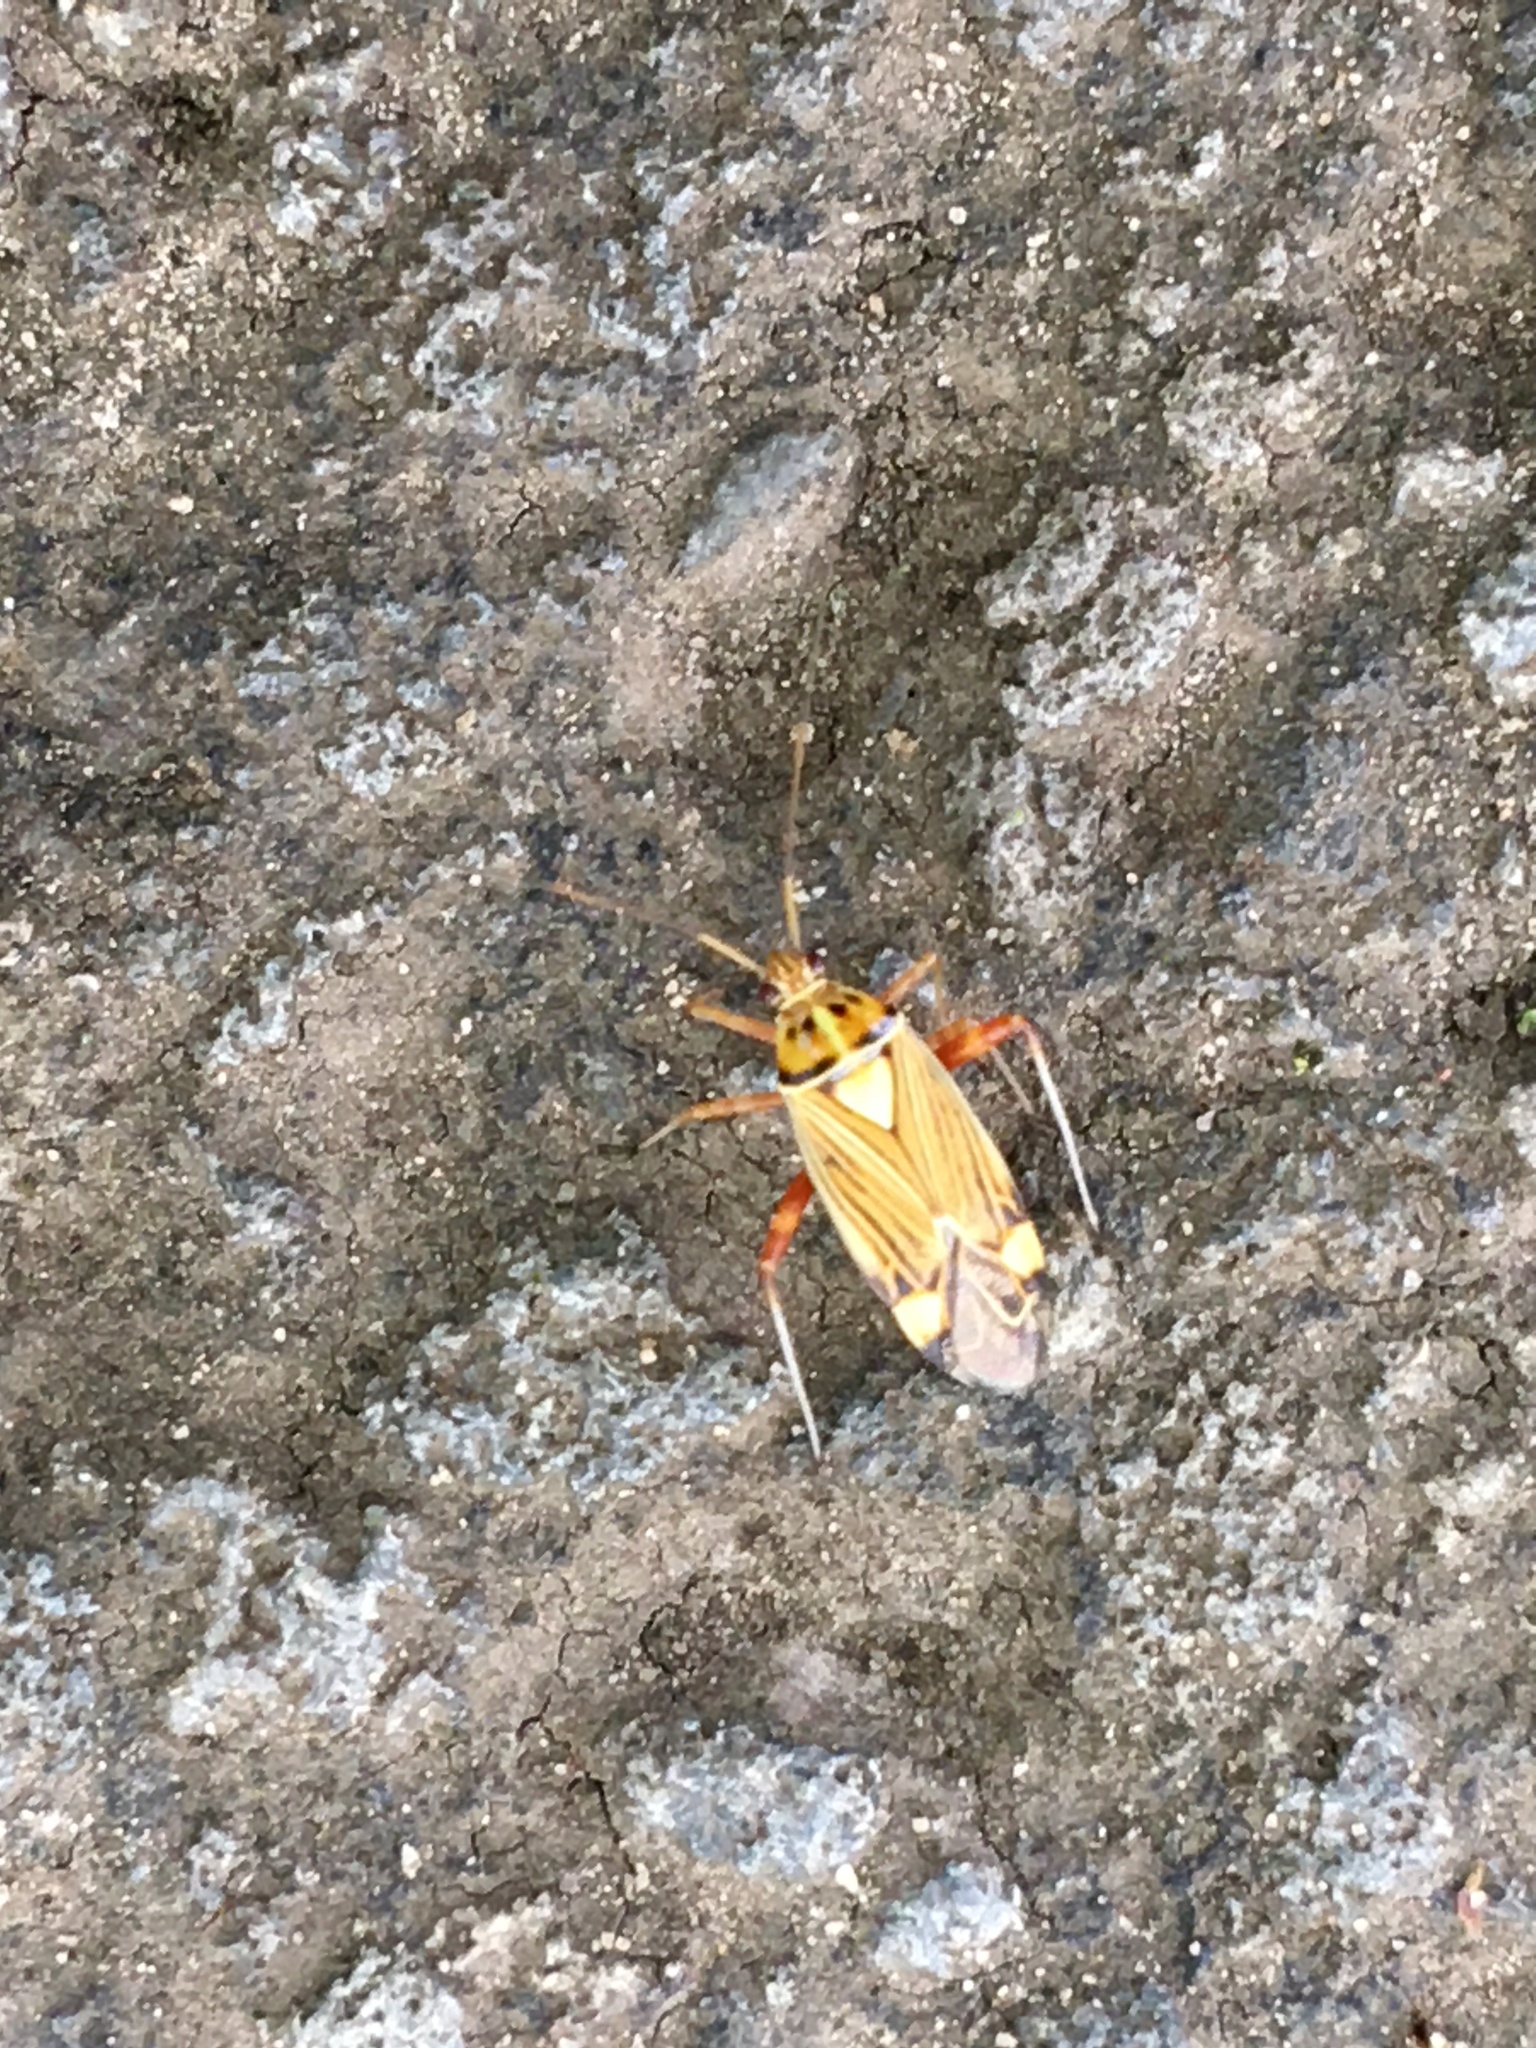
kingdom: Animalia
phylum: Arthropoda
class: Insecta
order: Hemiptera
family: Miridae
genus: Rhabdomiris
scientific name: Rhabdomiris striatellus
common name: Plant bug
